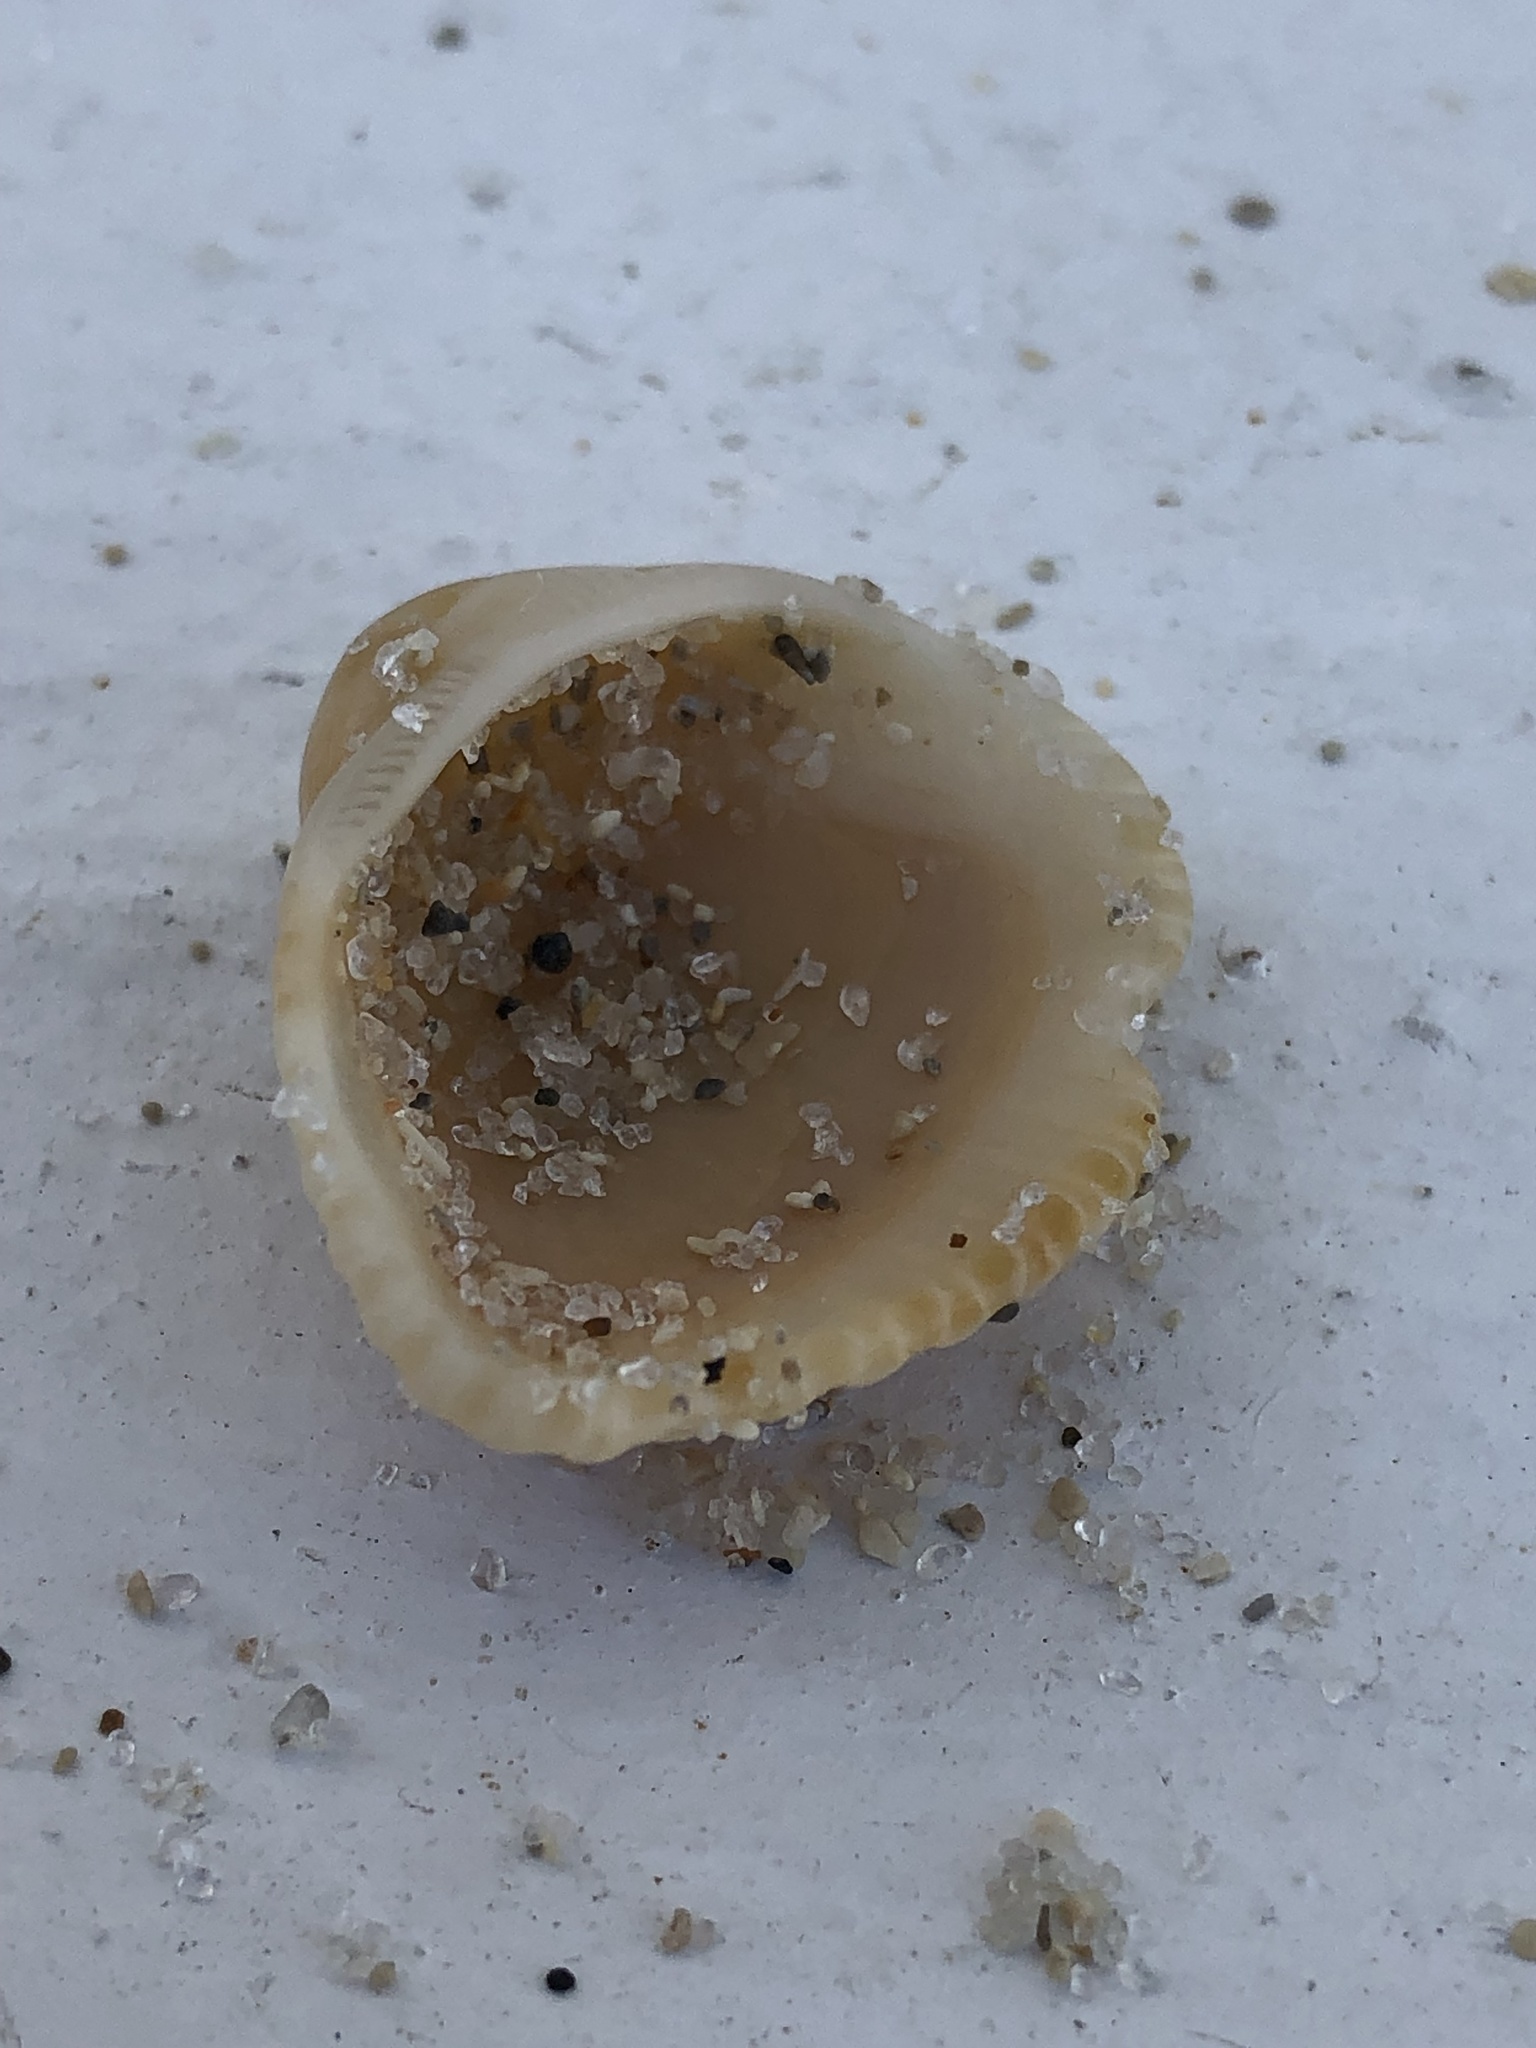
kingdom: Animalia
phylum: Mollusca
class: Bivalvia
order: Arcida
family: Noetiidae
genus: Noetia
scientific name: Noetia ponderosa
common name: Ponderous ark
